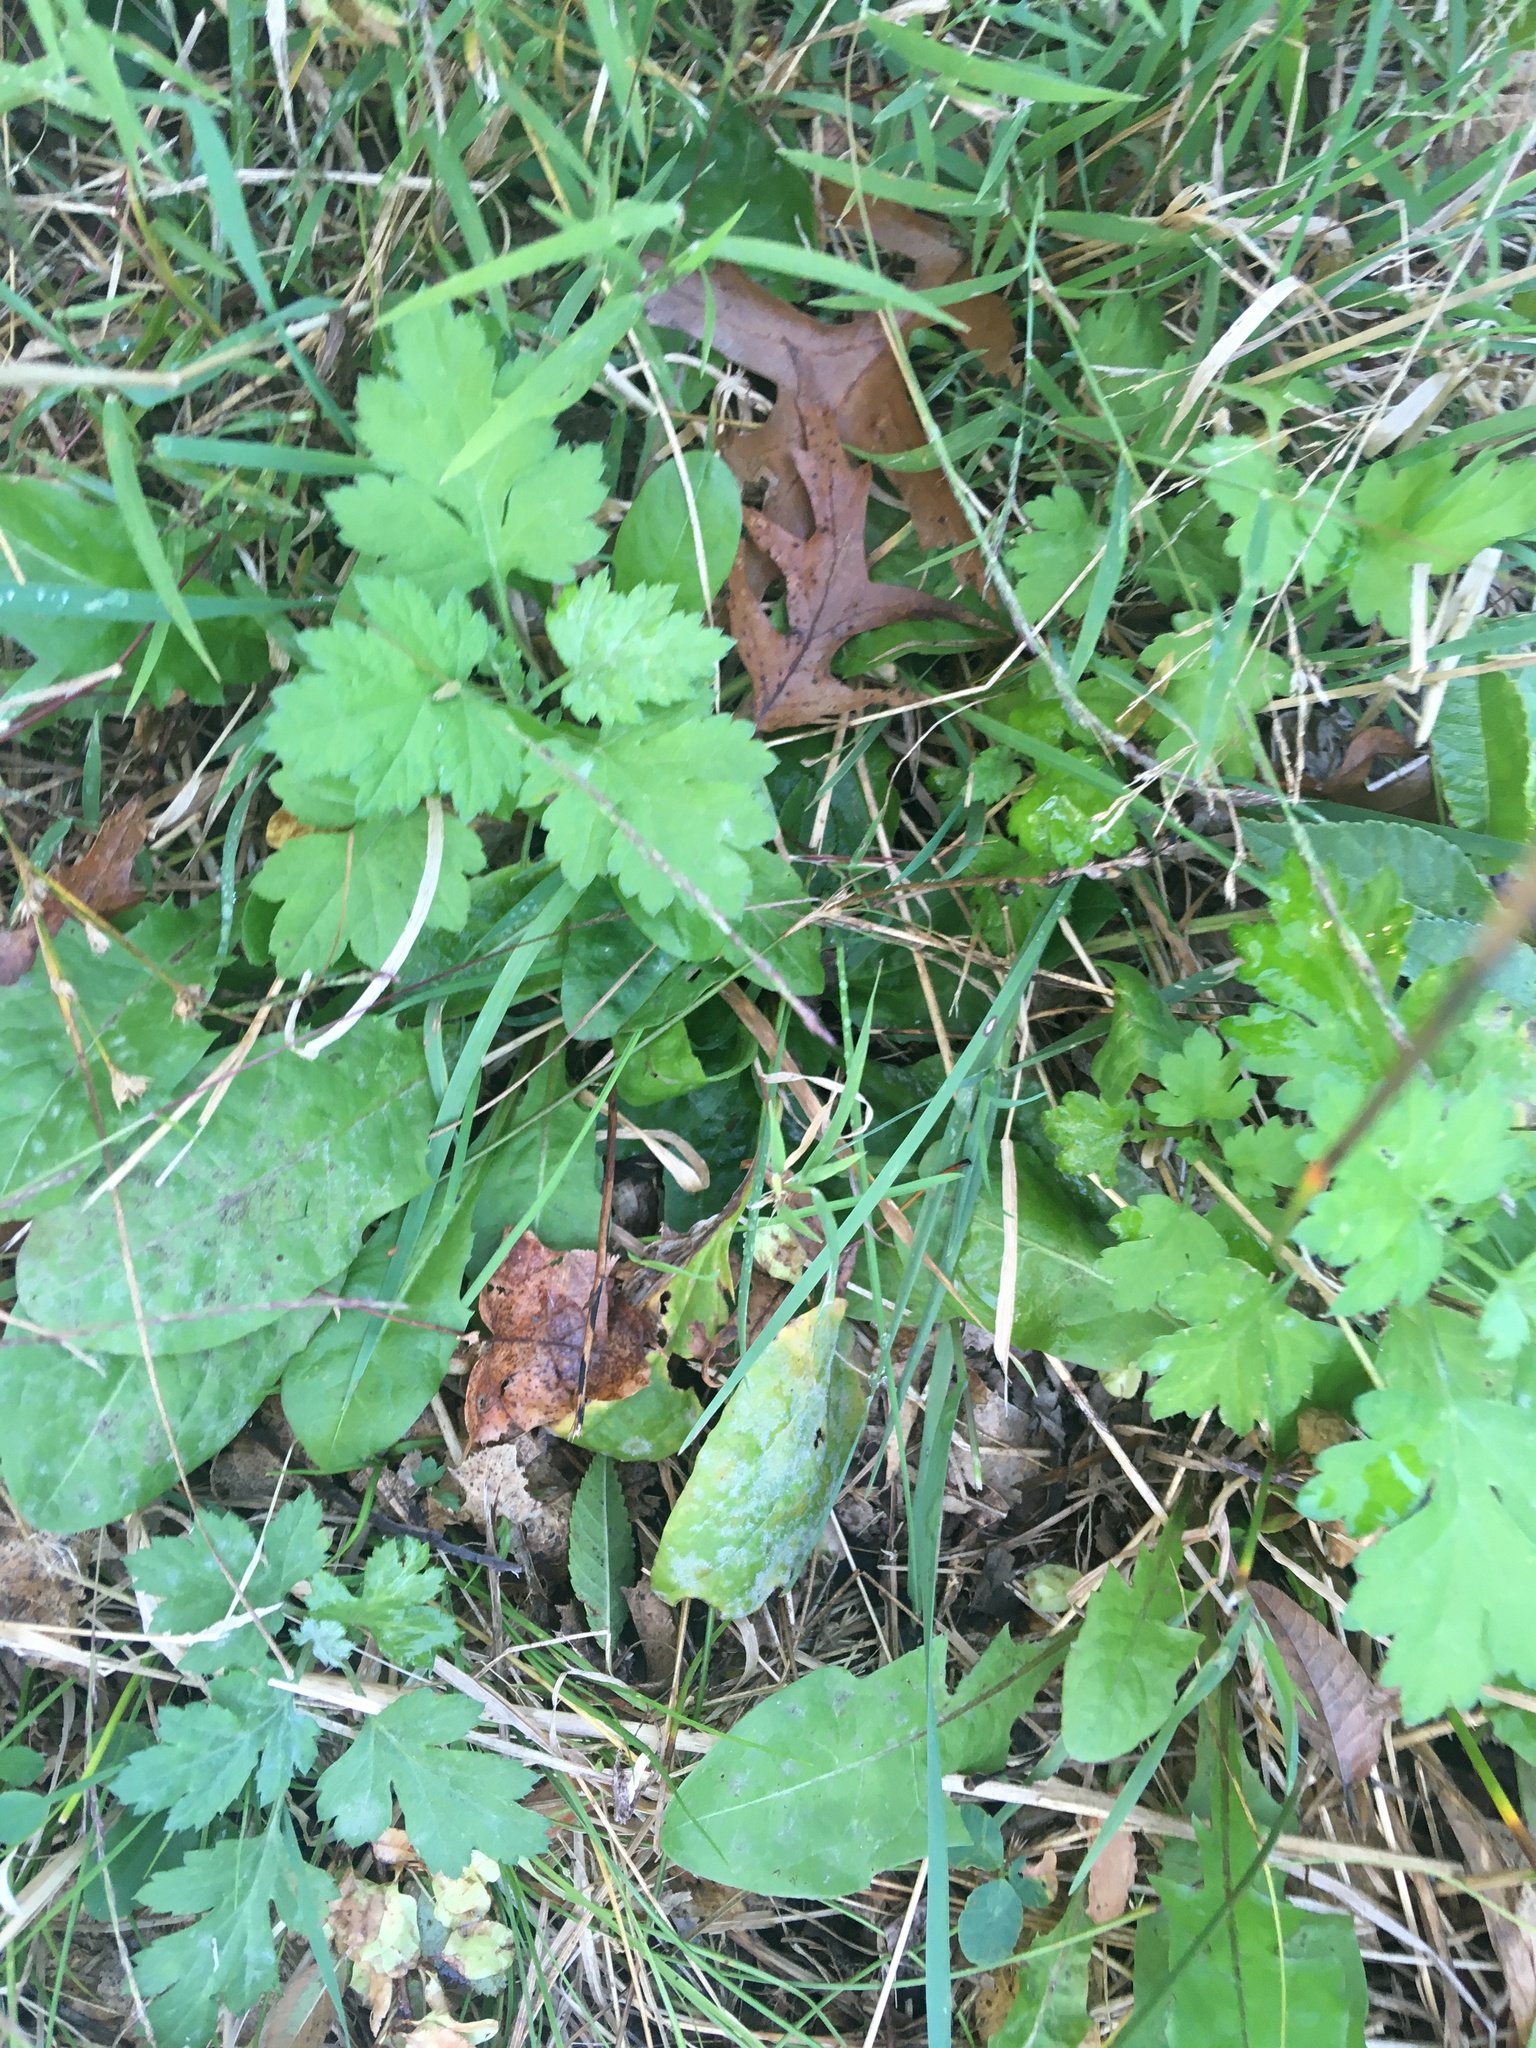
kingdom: Plantae
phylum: Tracheophyta
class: Magnoliopsida
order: Asterales
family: Asteraceae
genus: Artemisia
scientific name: Artemisia vulgaris
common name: Mugwort
